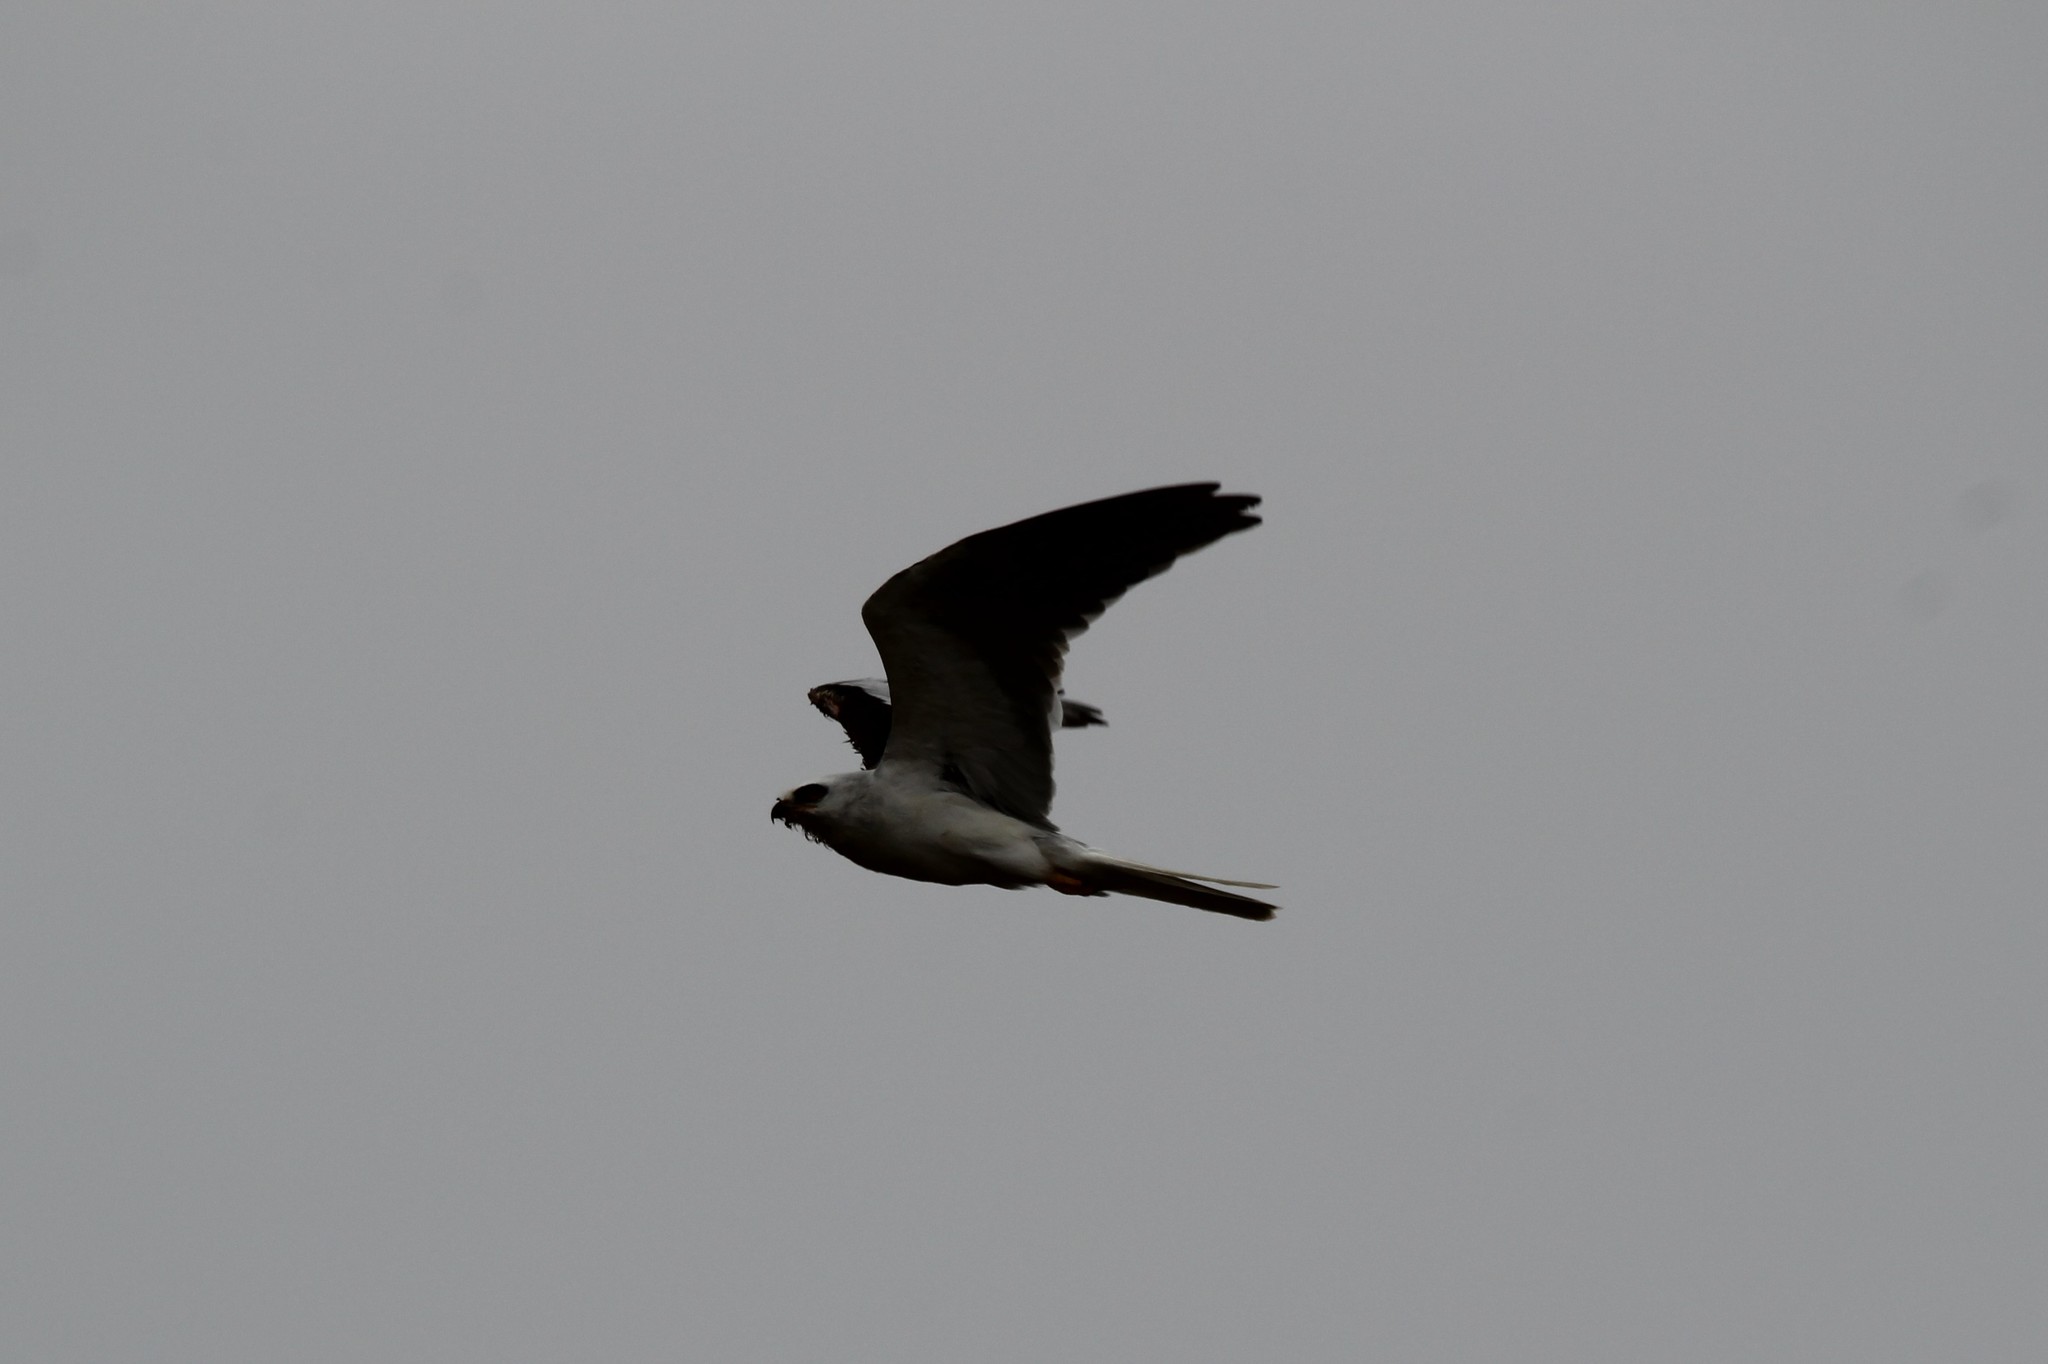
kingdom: Animalia
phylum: Chordata
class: Aves
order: Accipitriformes
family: Accipitridae
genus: Elanus
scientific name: Elanus leucurus
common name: White-tailed kite
